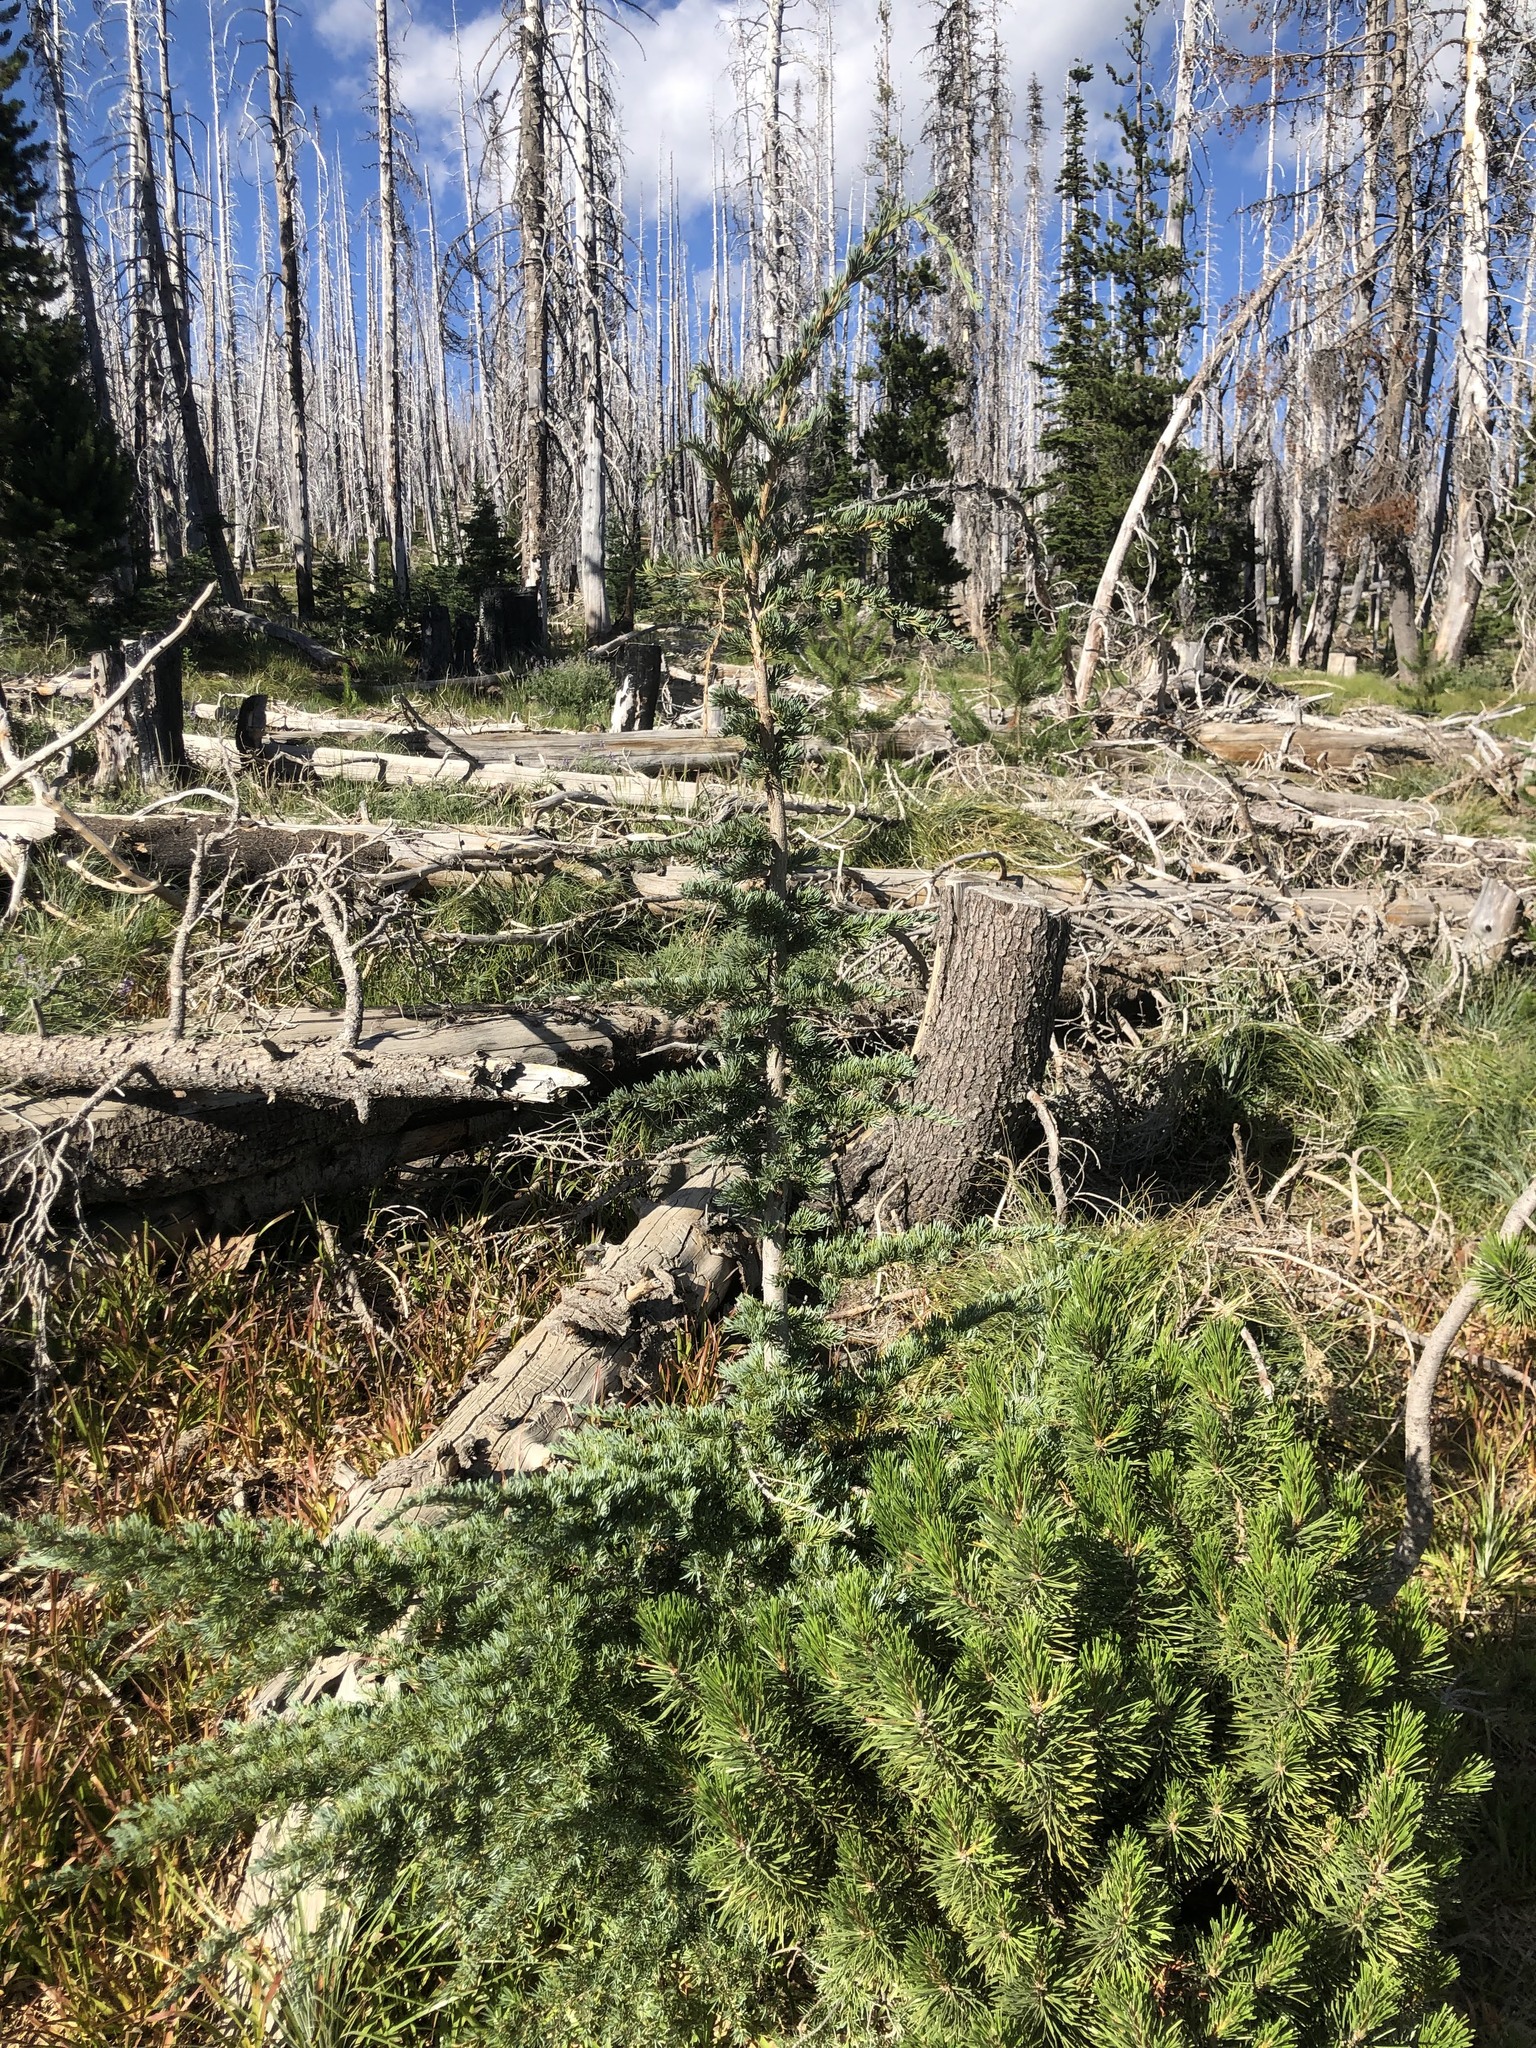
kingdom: Plantae
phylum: Tracheophyta
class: Pinopsida
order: Pinales
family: Pinaceae
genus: Tsuga
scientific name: Tsuga mertensiana
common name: Mountain hemlock
